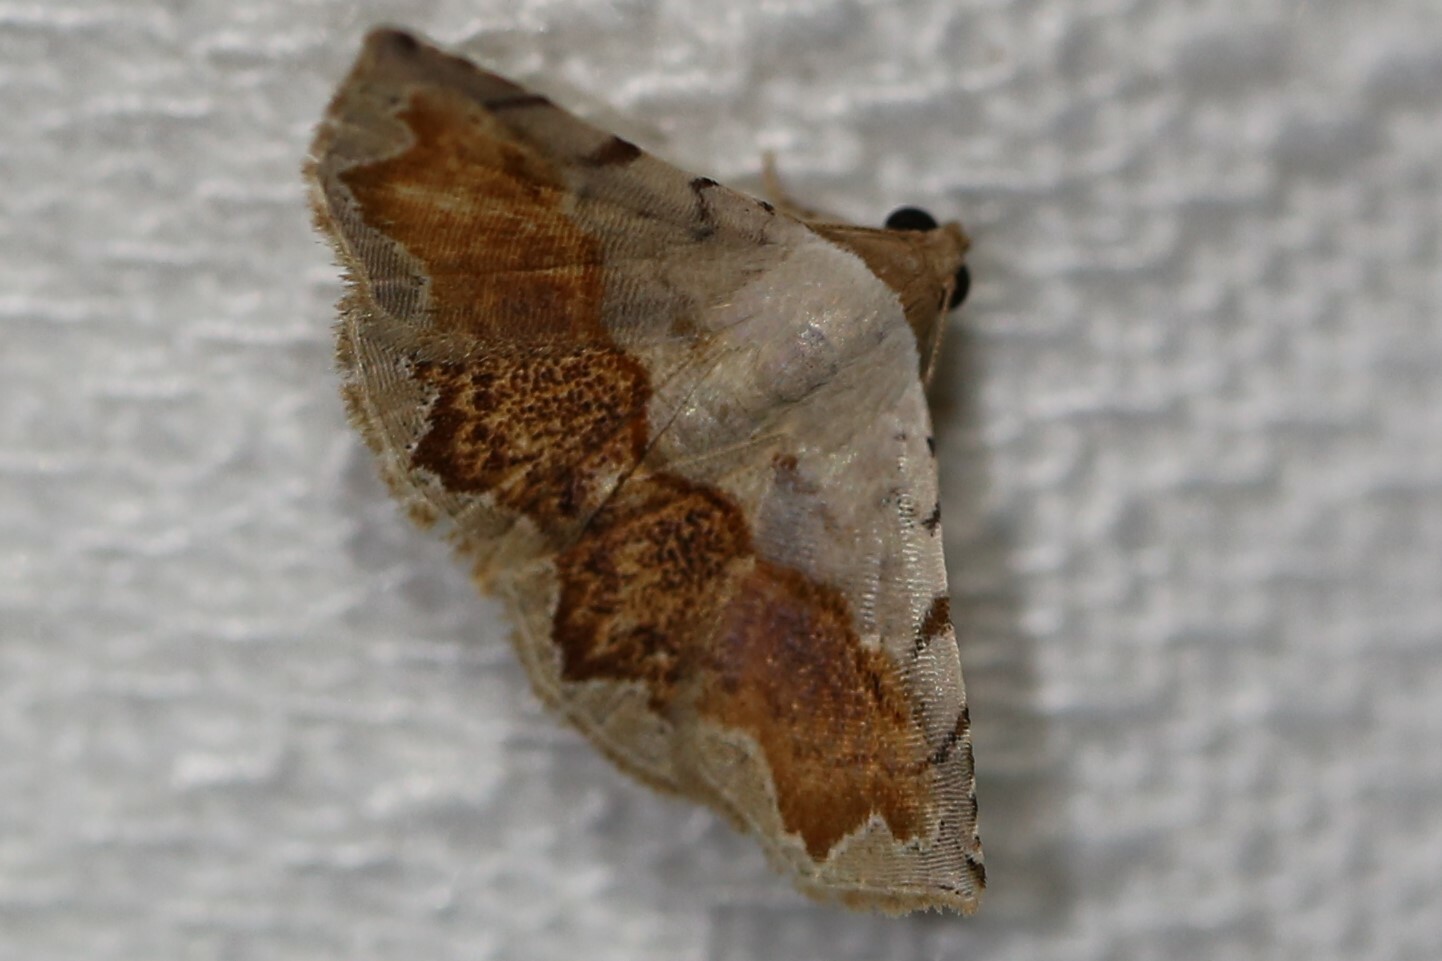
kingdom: Animalia
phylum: Arthropoda
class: Insecta
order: Lepidoptera
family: Noctuidae
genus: Eublemma
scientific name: Eublemma
